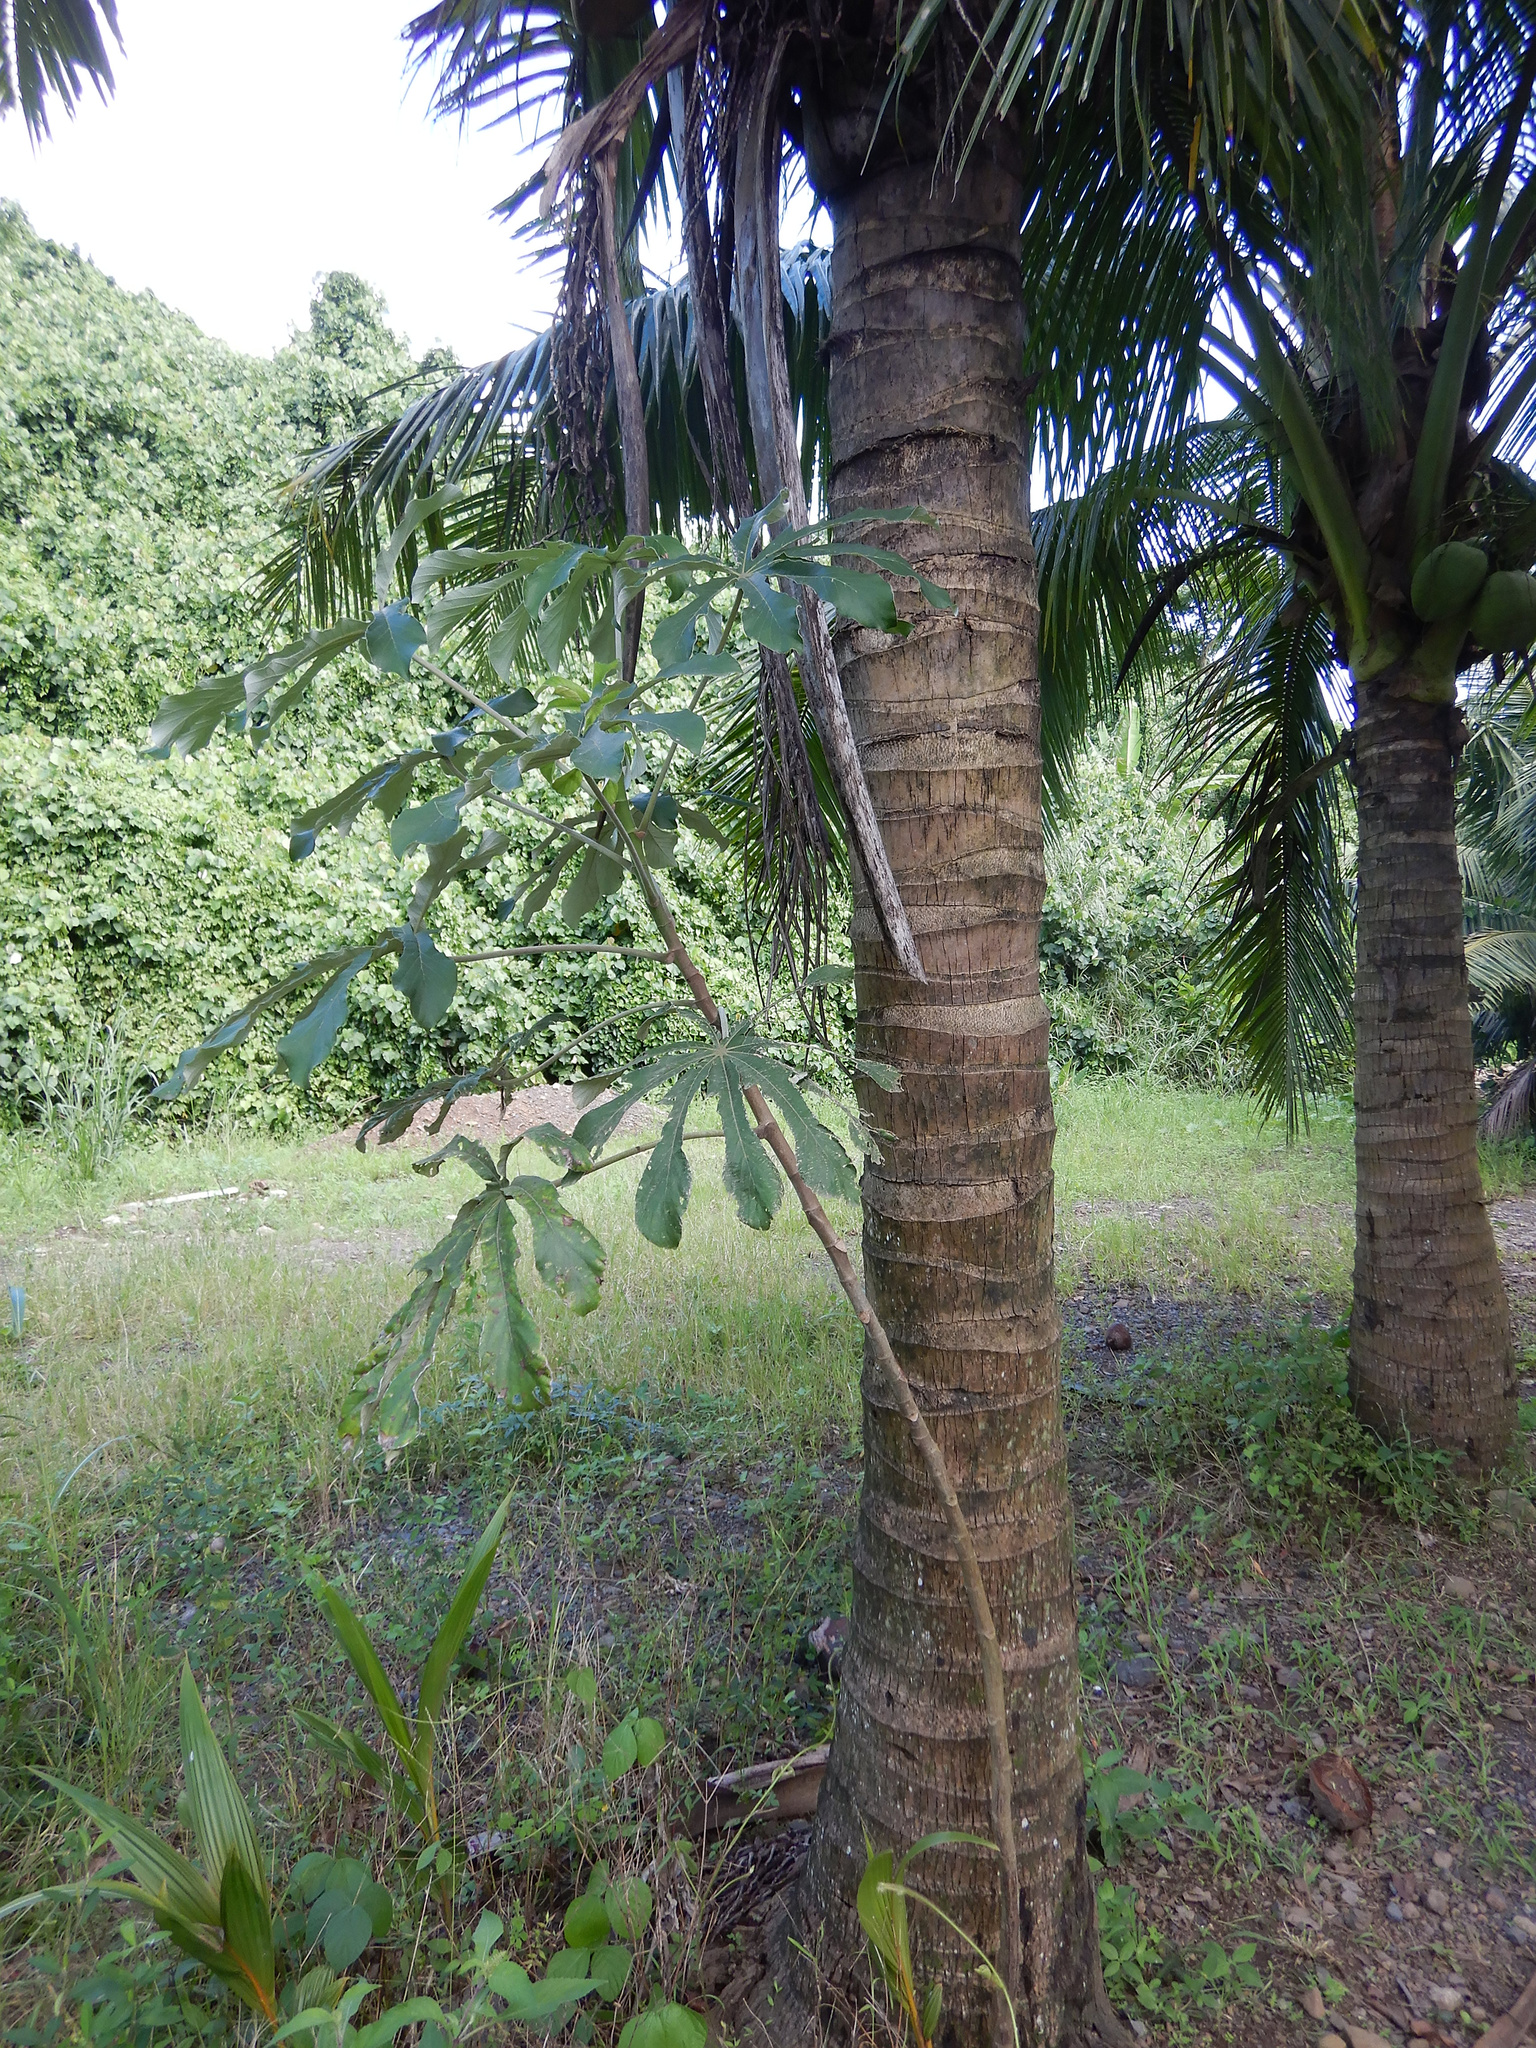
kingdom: Plantae
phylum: Tracheophyta
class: Magnoliopsida
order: Rosales
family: Urticaceae
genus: Cecropia
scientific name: Cecropia pachystachya
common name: Ambay pumpwood
